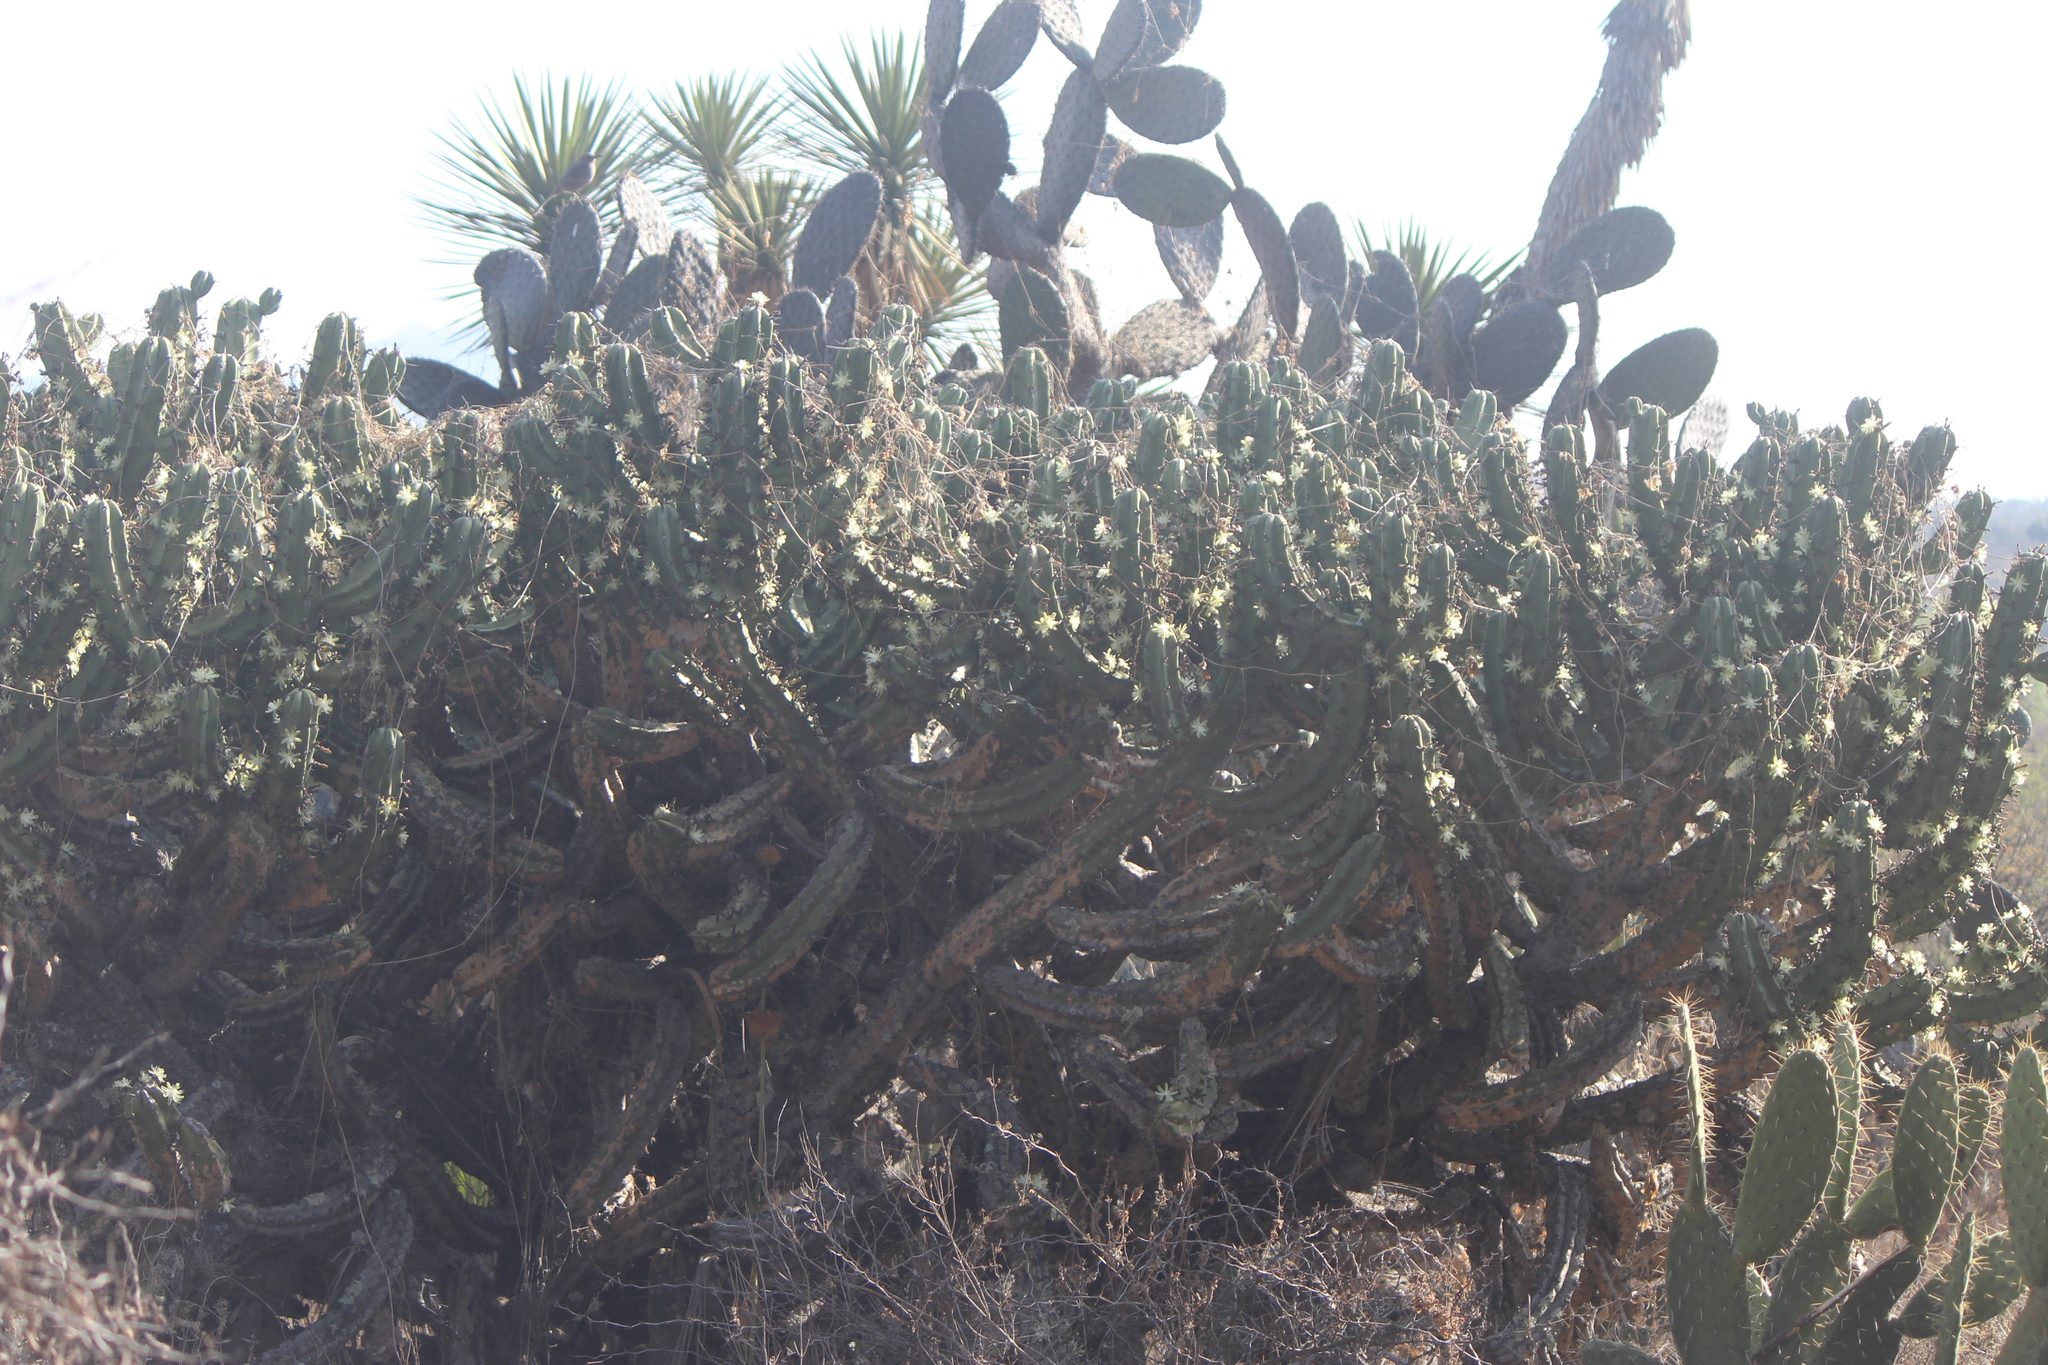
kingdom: Plantae
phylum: Tracheophyta
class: Magnoliopsida
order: Caryophyllales
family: Cactaceae
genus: Myrtillocactus
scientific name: Myrtillocactus geometrizans
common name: Bilberry cactus
